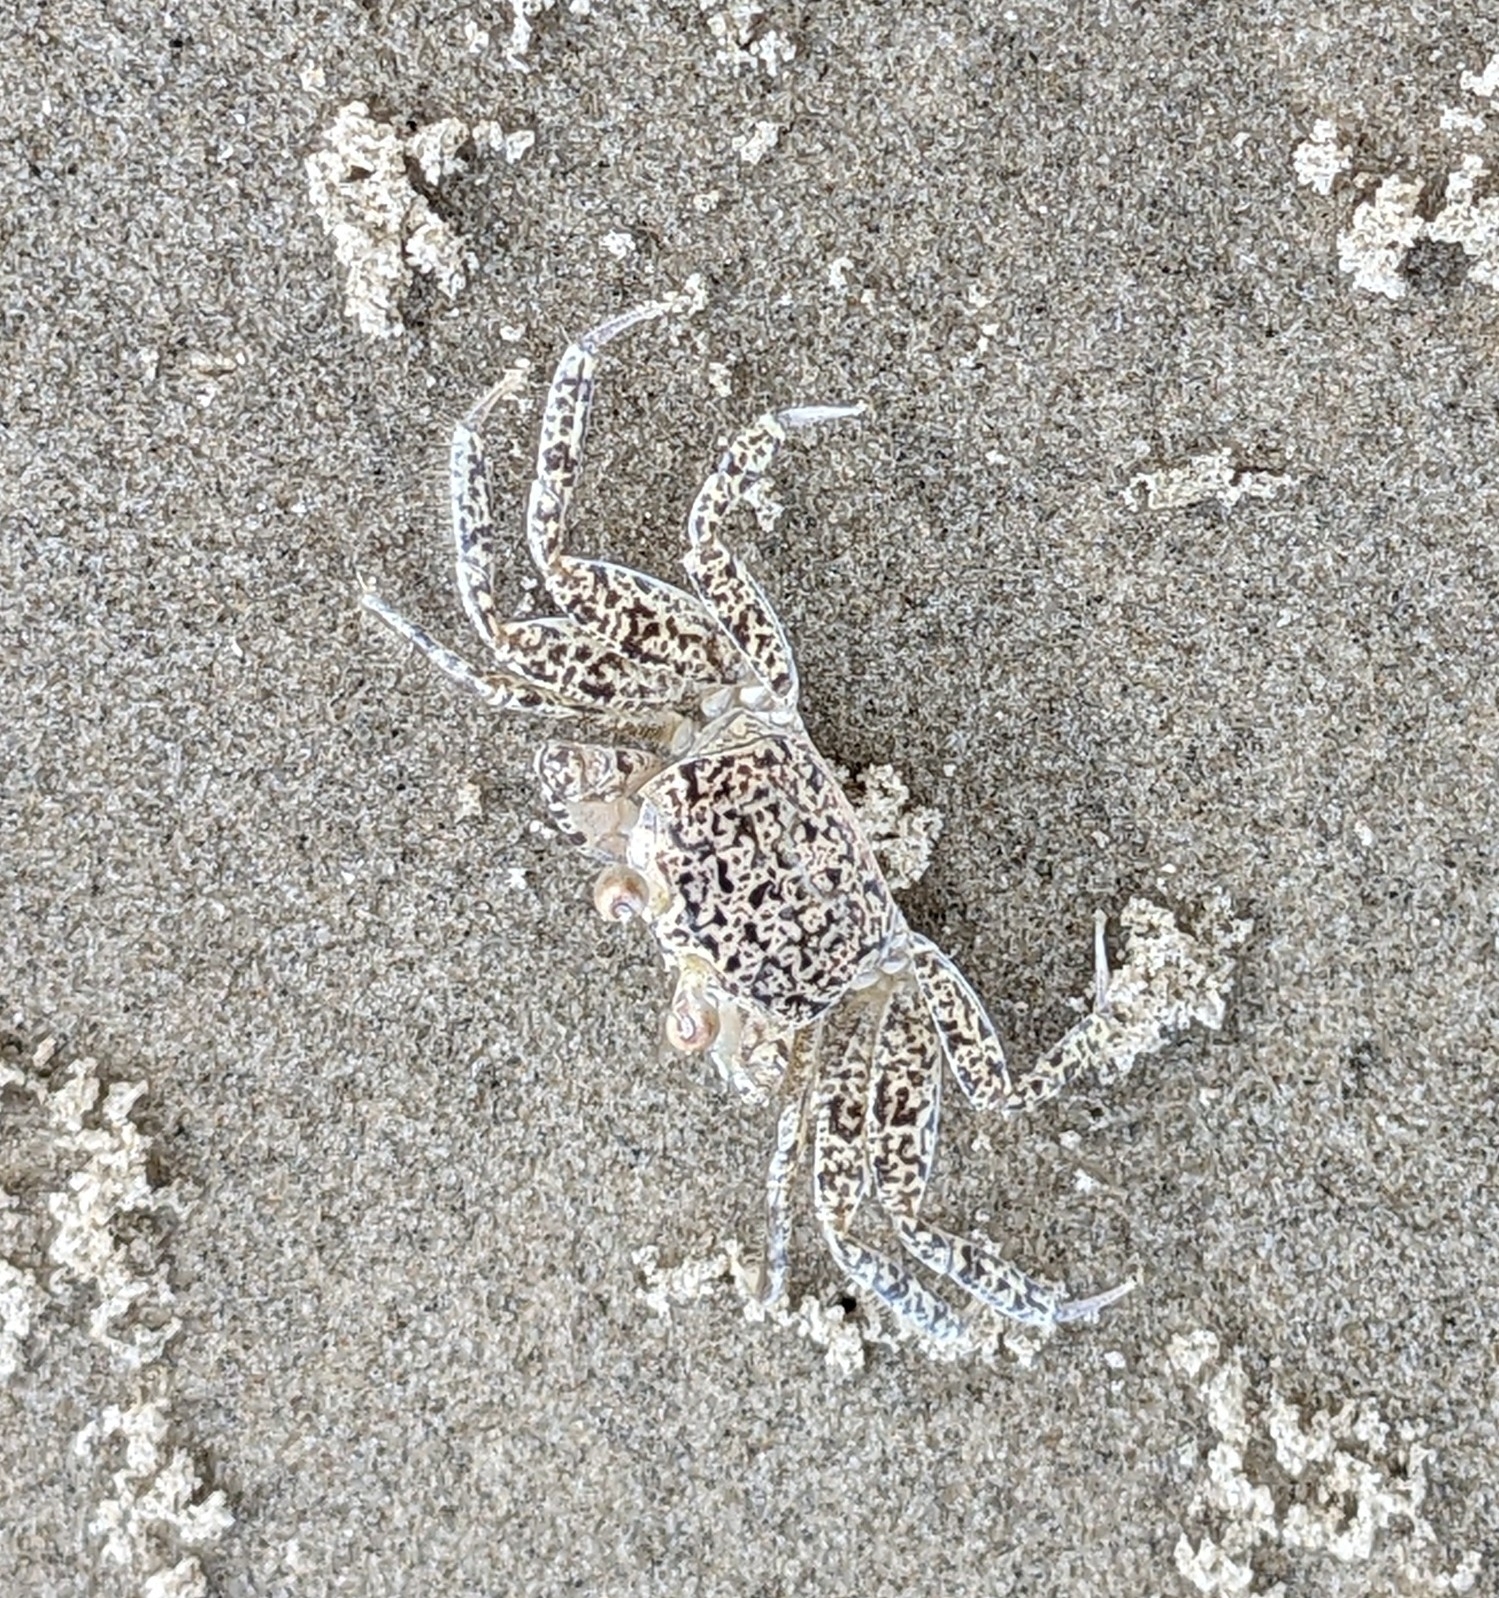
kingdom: Animalia
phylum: Arthropoda
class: Malacostraca
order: Decapoda
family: Ocypodidae
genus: Ocypode
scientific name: Ocypode quadrata
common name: Ghost crab
